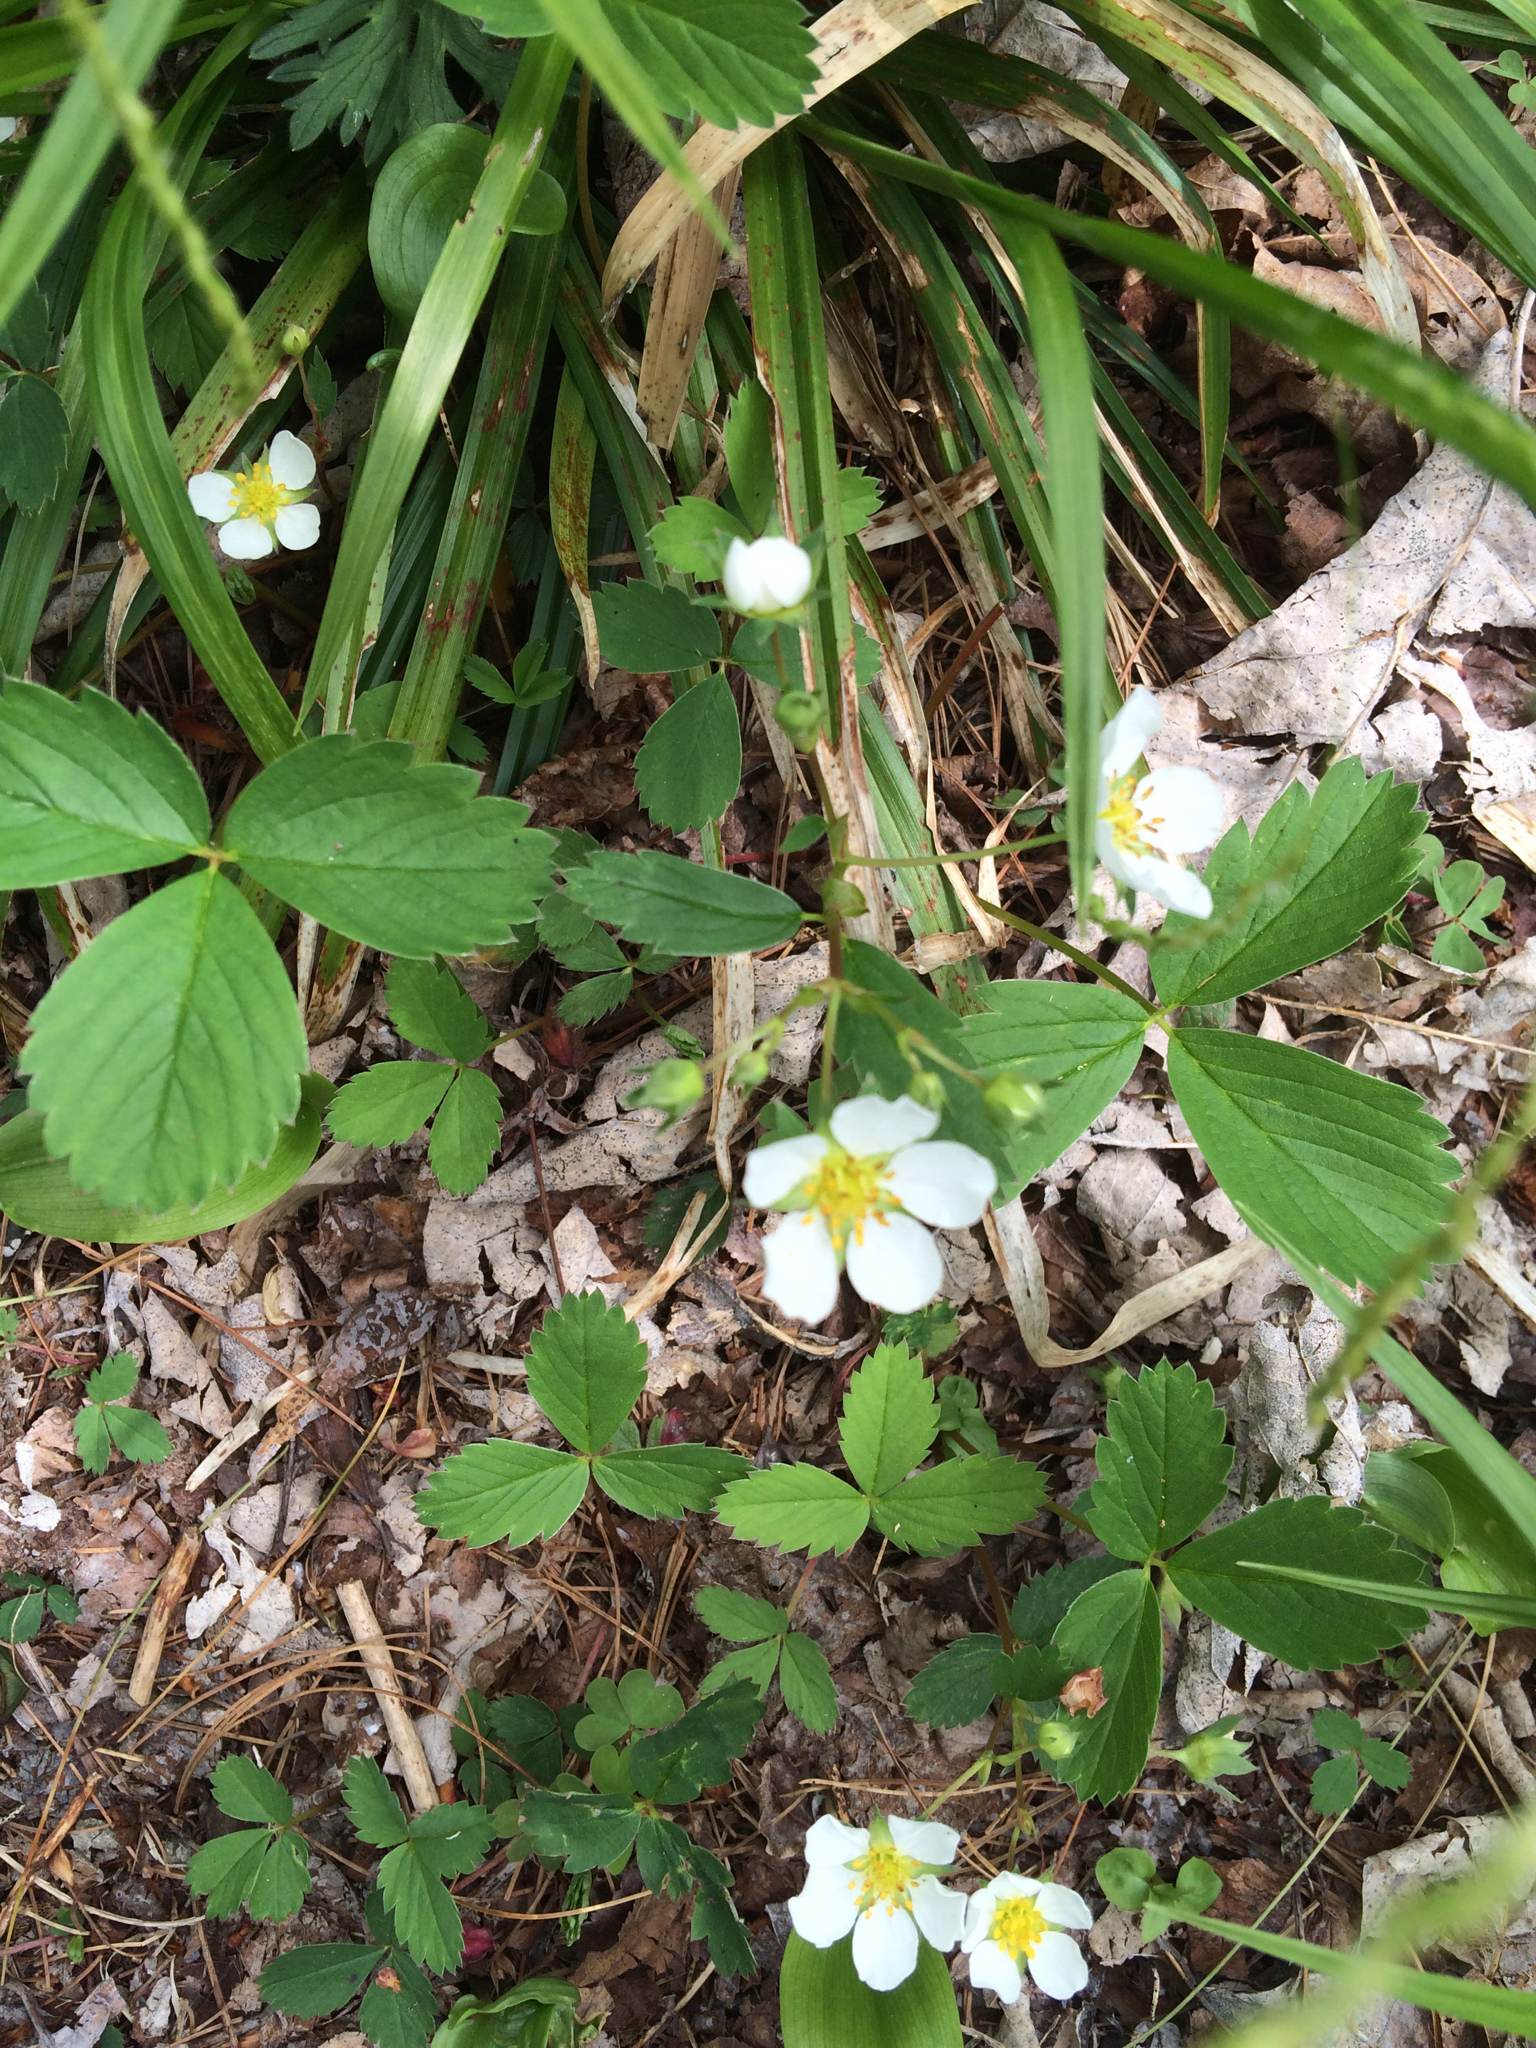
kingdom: Plantae
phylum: Tracheophyta
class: Magnoliopsida
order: Rosales
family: Rosaceae
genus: Fragaria
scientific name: Fragaria virginiana
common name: Thickleaved wild strawberry
